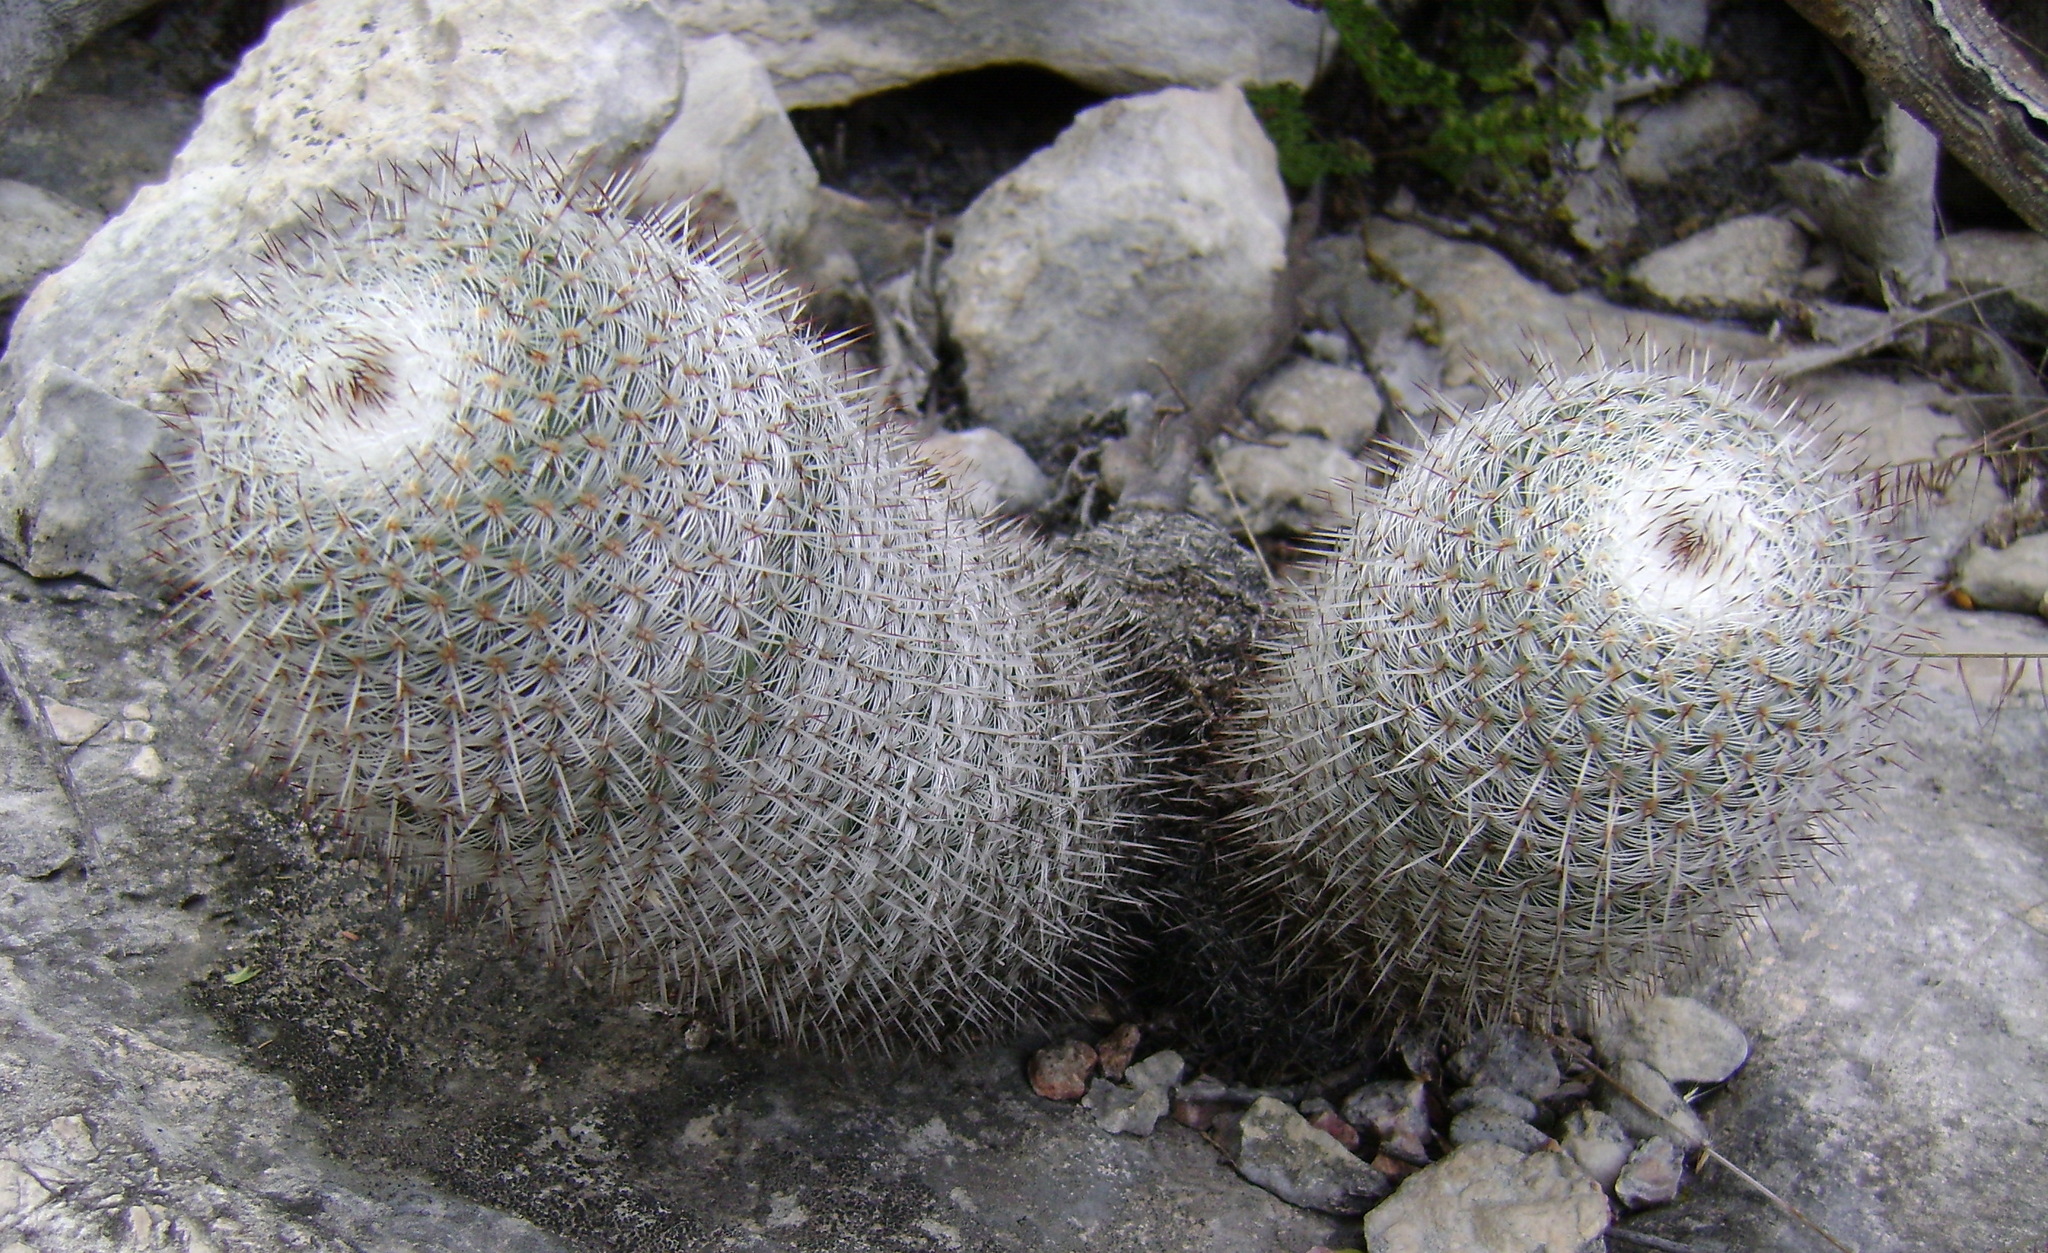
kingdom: Plantae
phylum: Tracheophyta
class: Magnoliopsida
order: Caryophyllales
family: Cactaceae
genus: Mammillaria
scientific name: Mammillaria haageana
